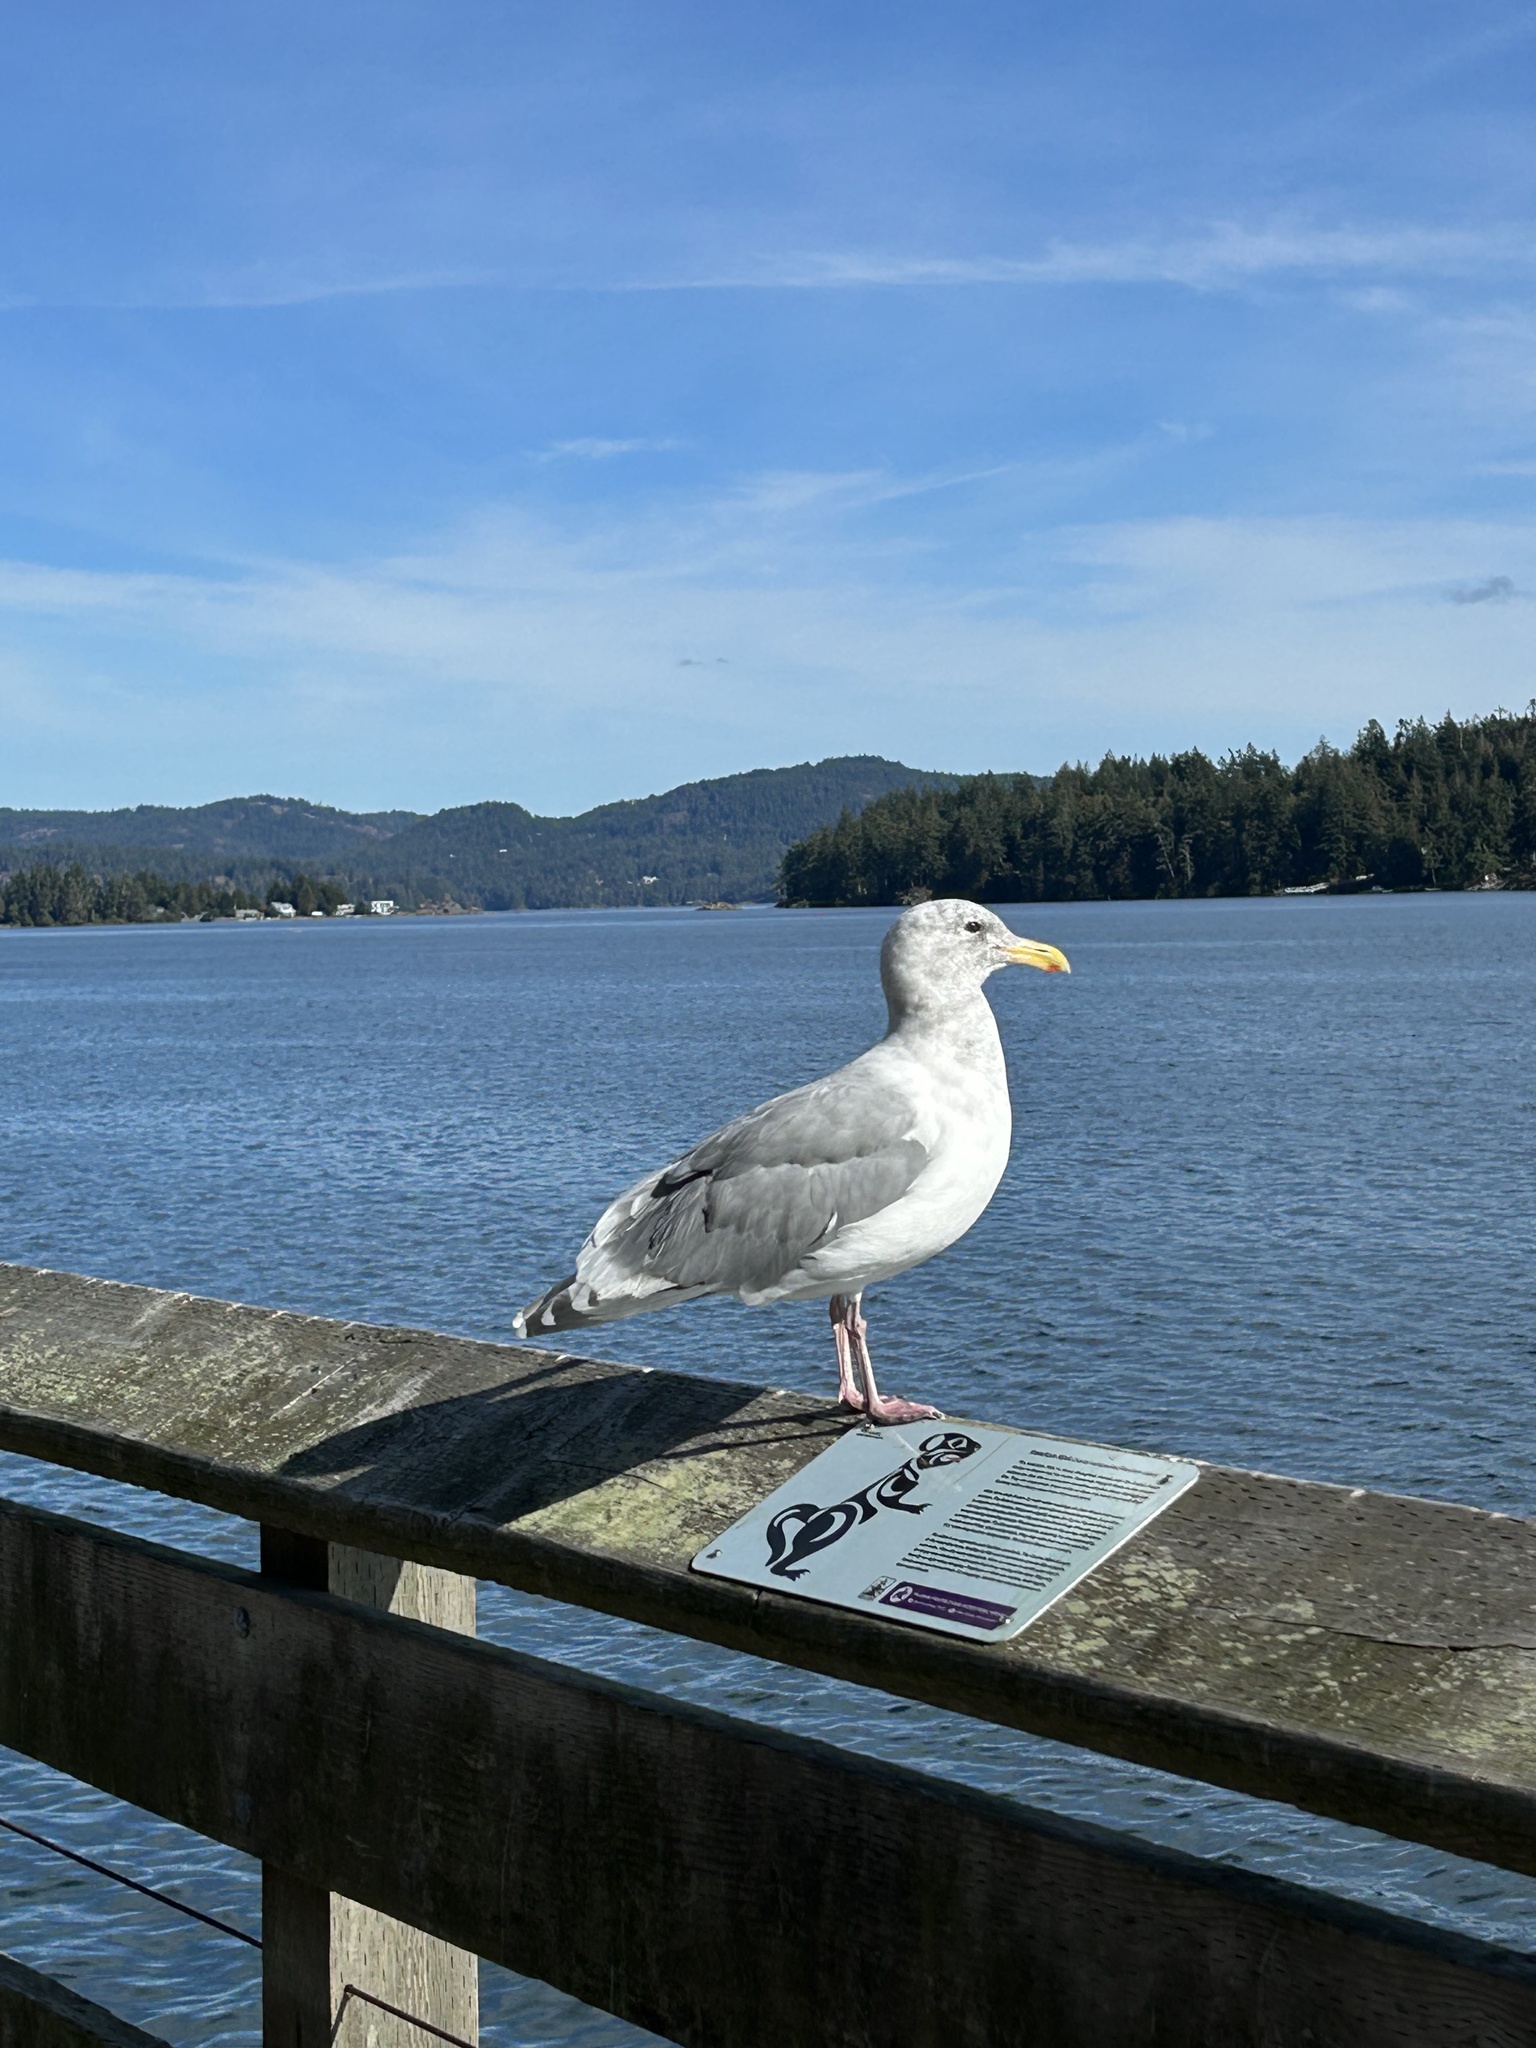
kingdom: Animalia
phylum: Chordata
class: Aves
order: Charadriiformes
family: Laridae
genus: Larus
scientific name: Larus
